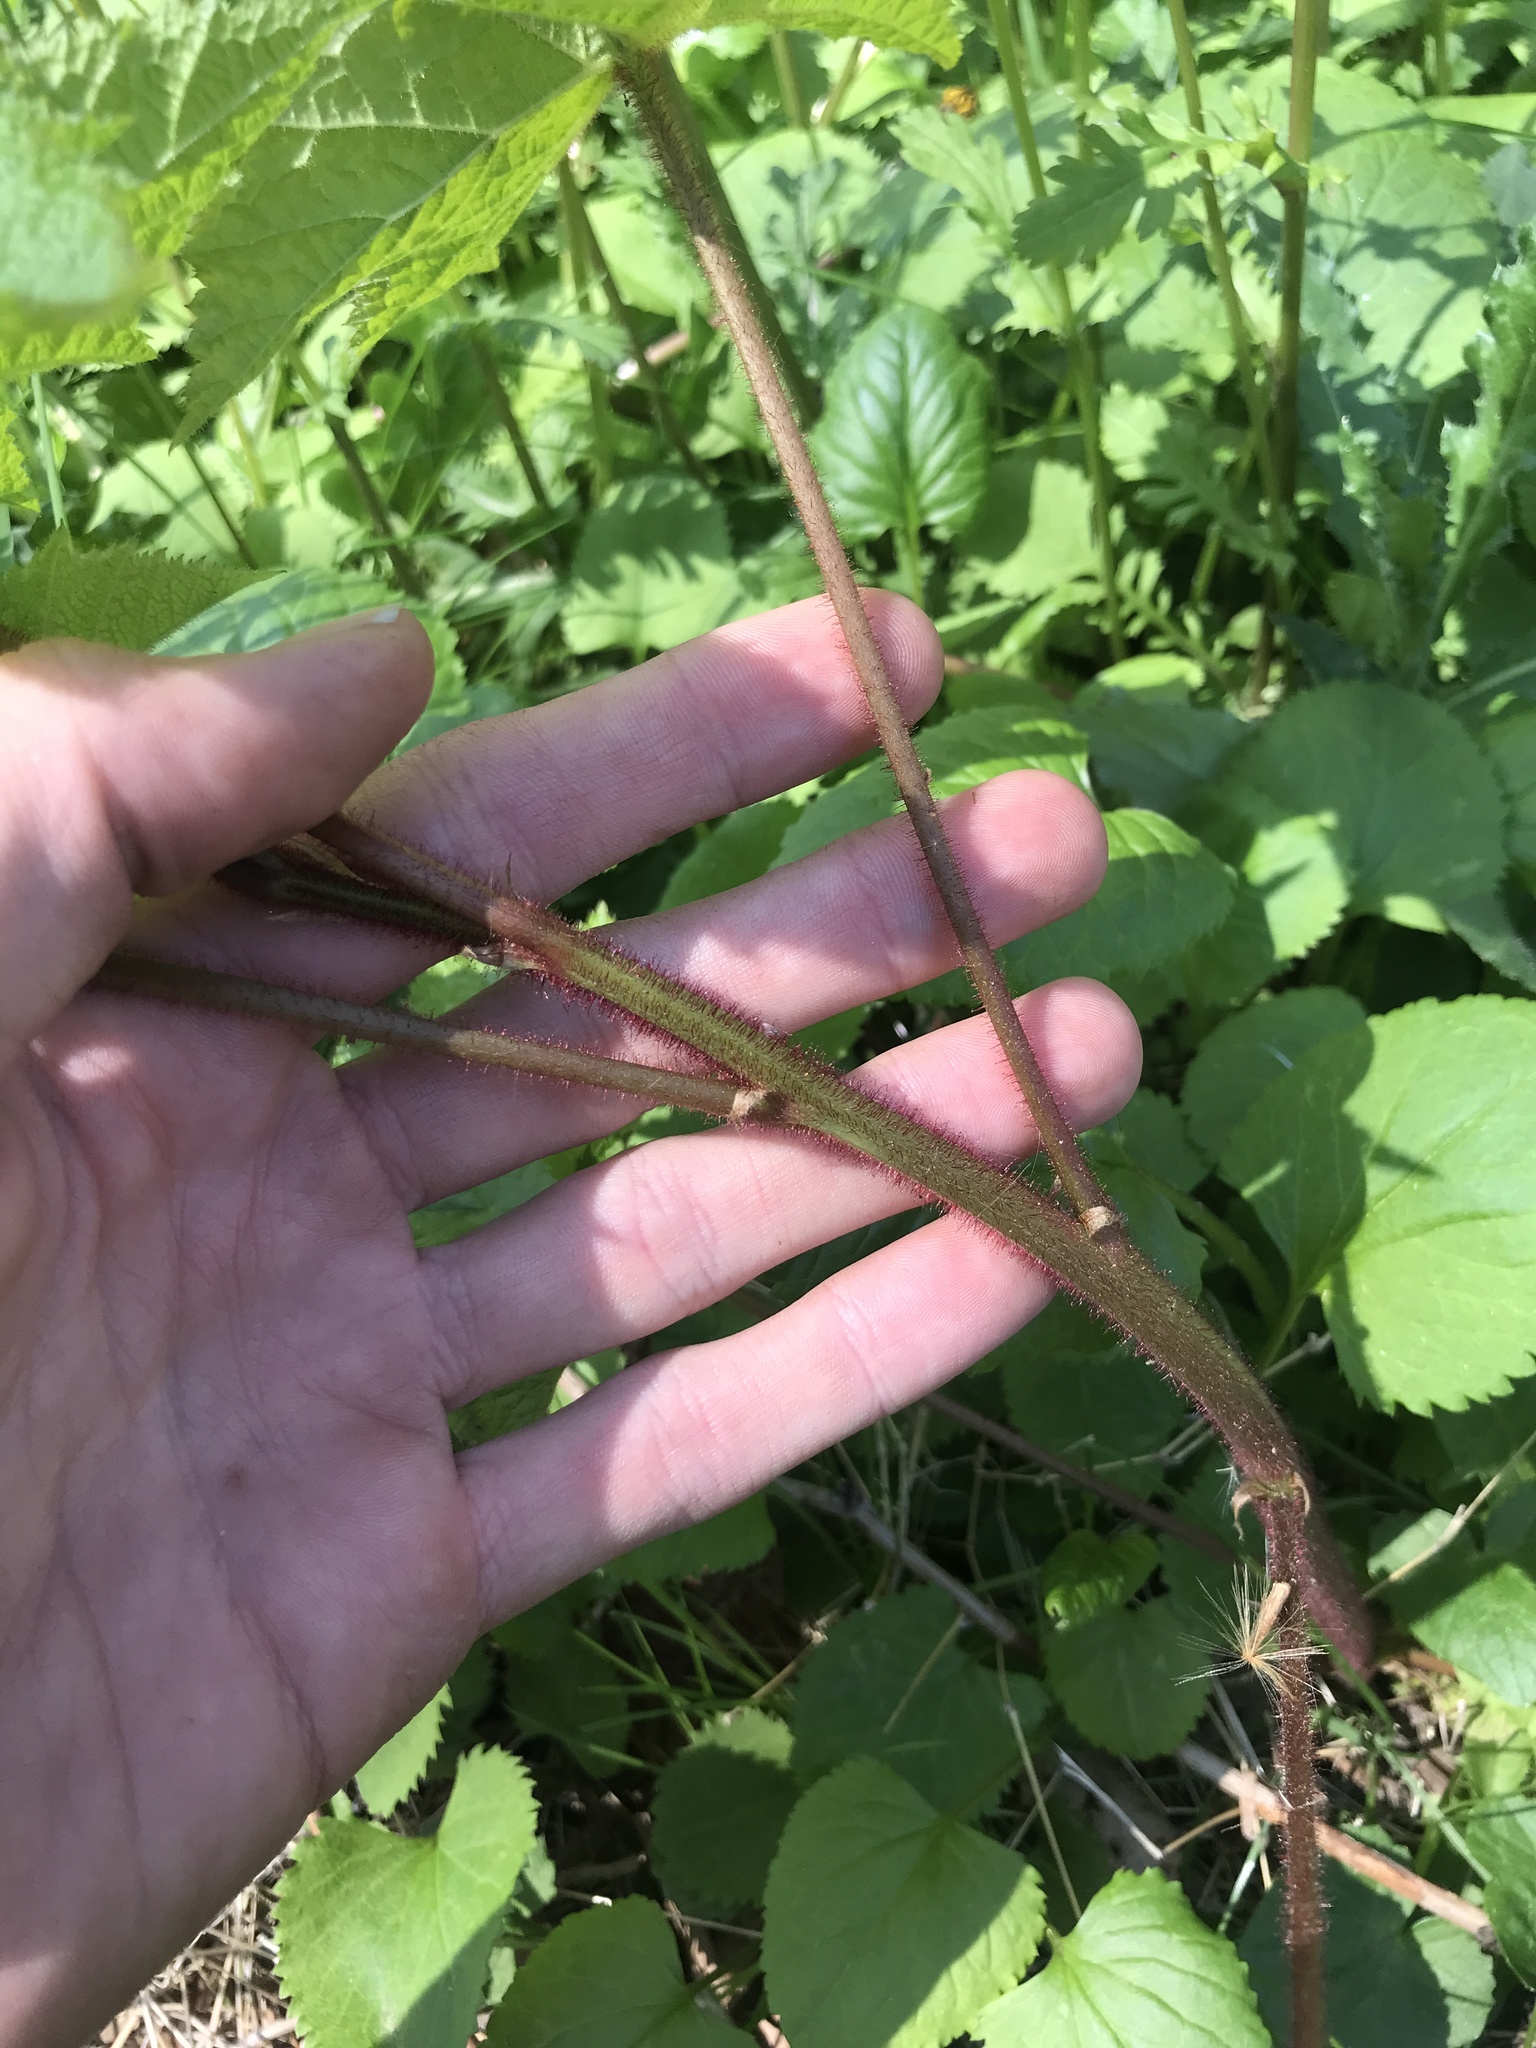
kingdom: Plantae
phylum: Tracheophyta
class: Magnoliopsida
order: Rosales
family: Rosaceae
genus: Rubus
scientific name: Rubus odoratus
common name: Purple-flowered raspberry
